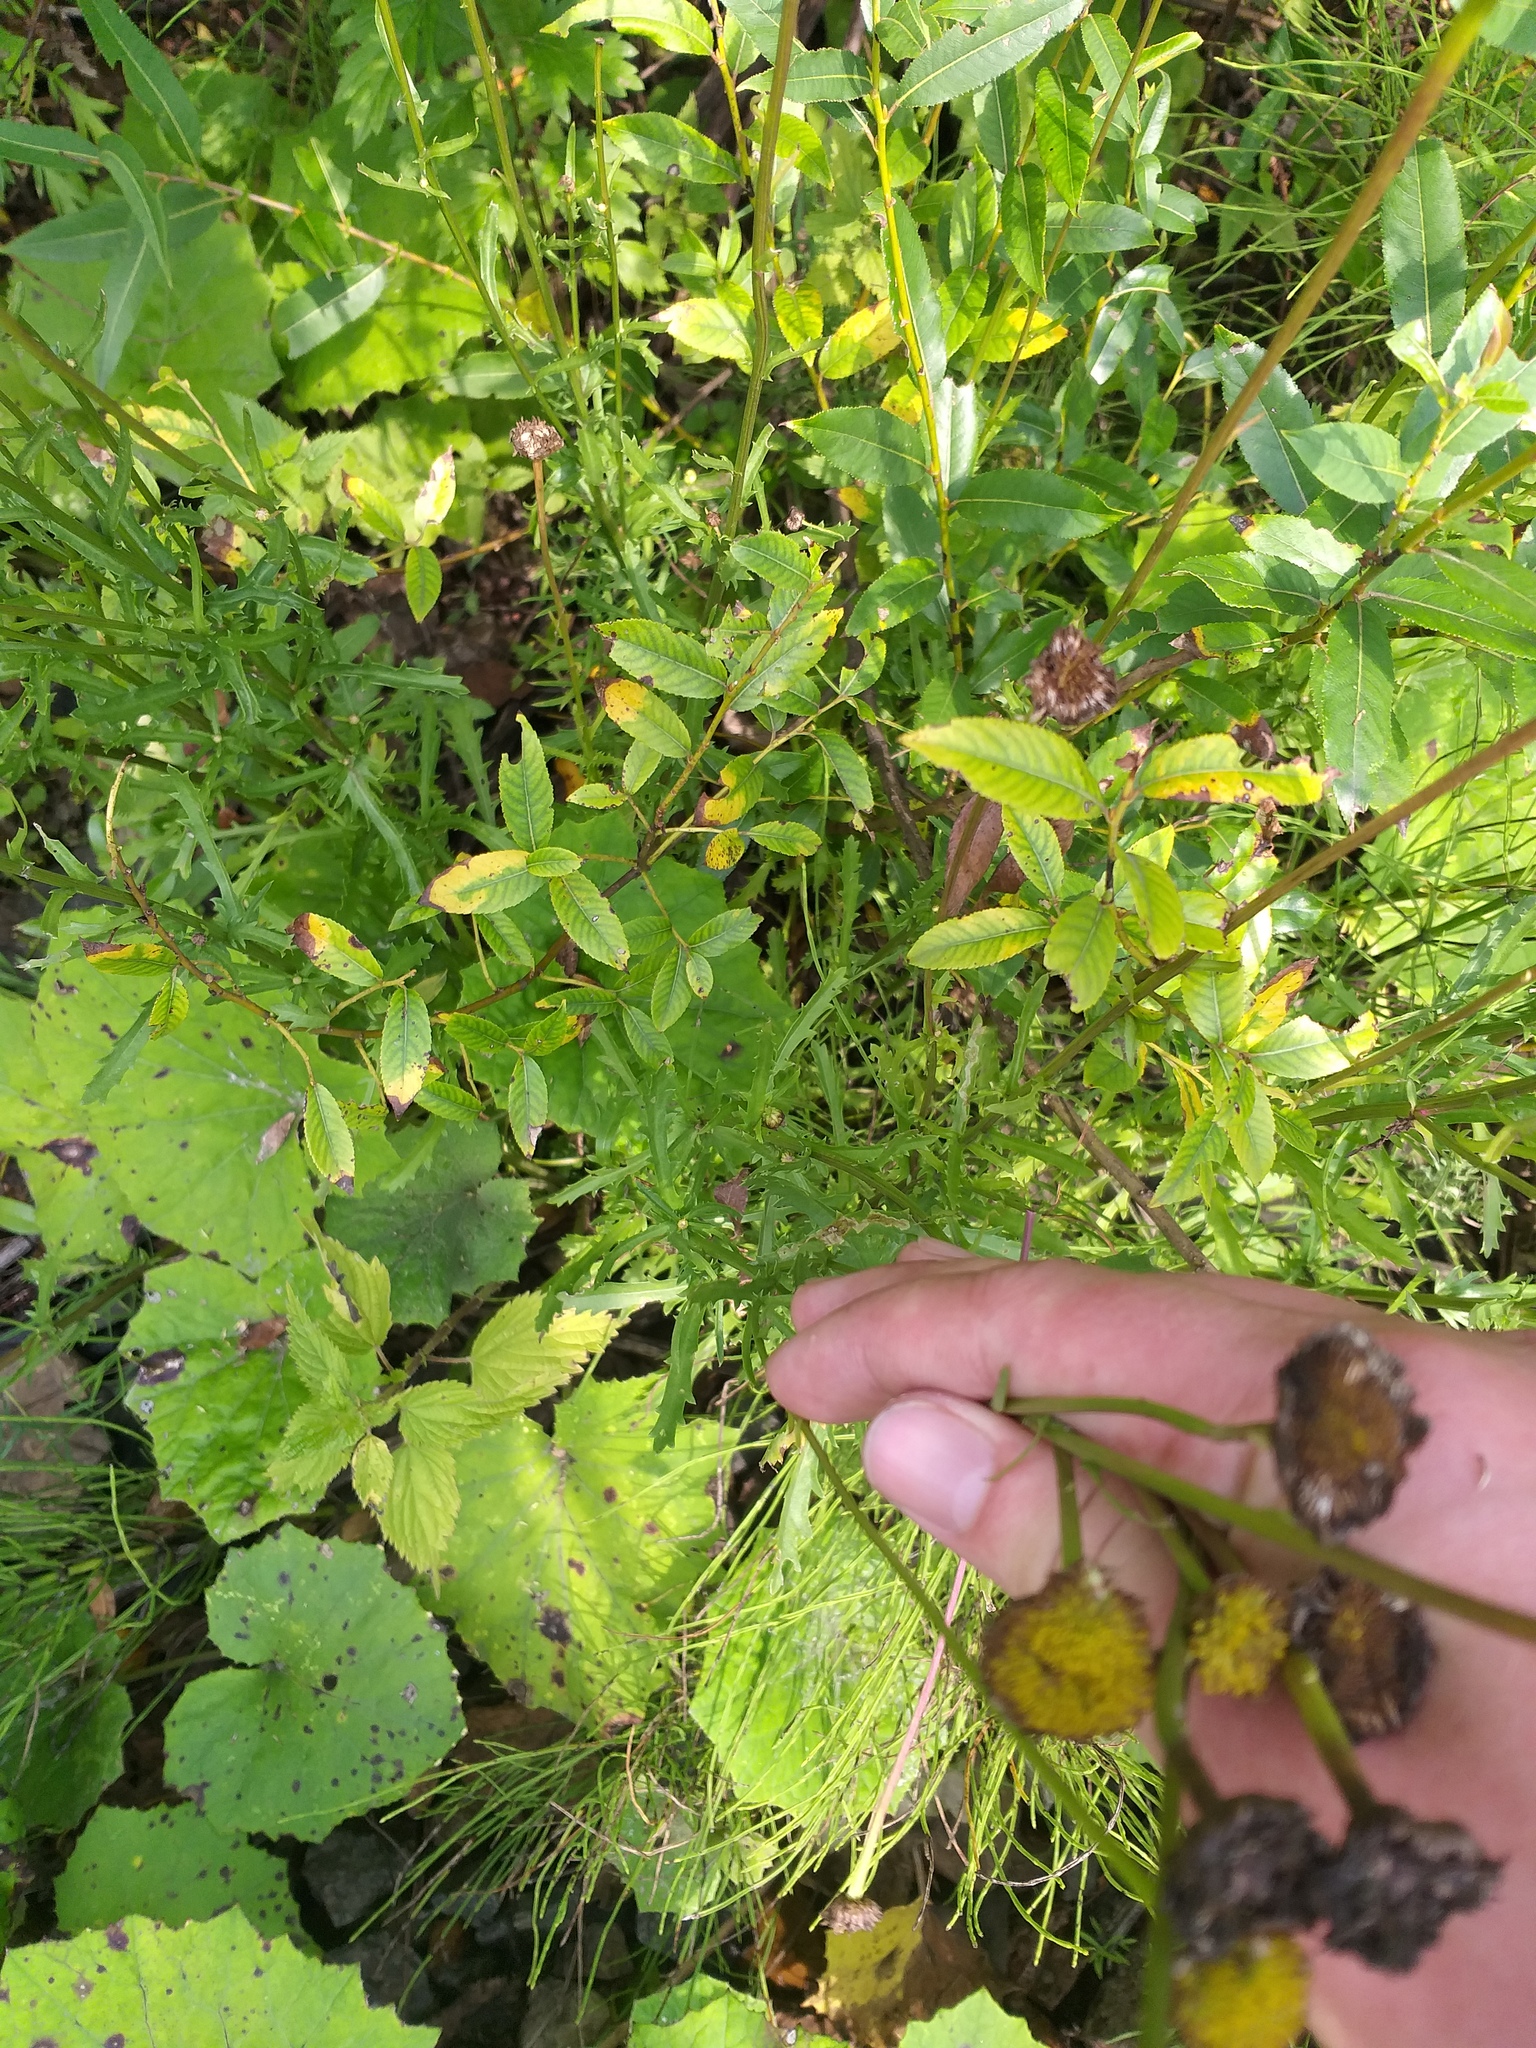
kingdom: Plantae
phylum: Tracheophyta
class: Magnoliopsida
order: Asterales
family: Asteraceae
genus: Leucanthemum
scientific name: Leucanthemum vulgare
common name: Oxeye daisy
